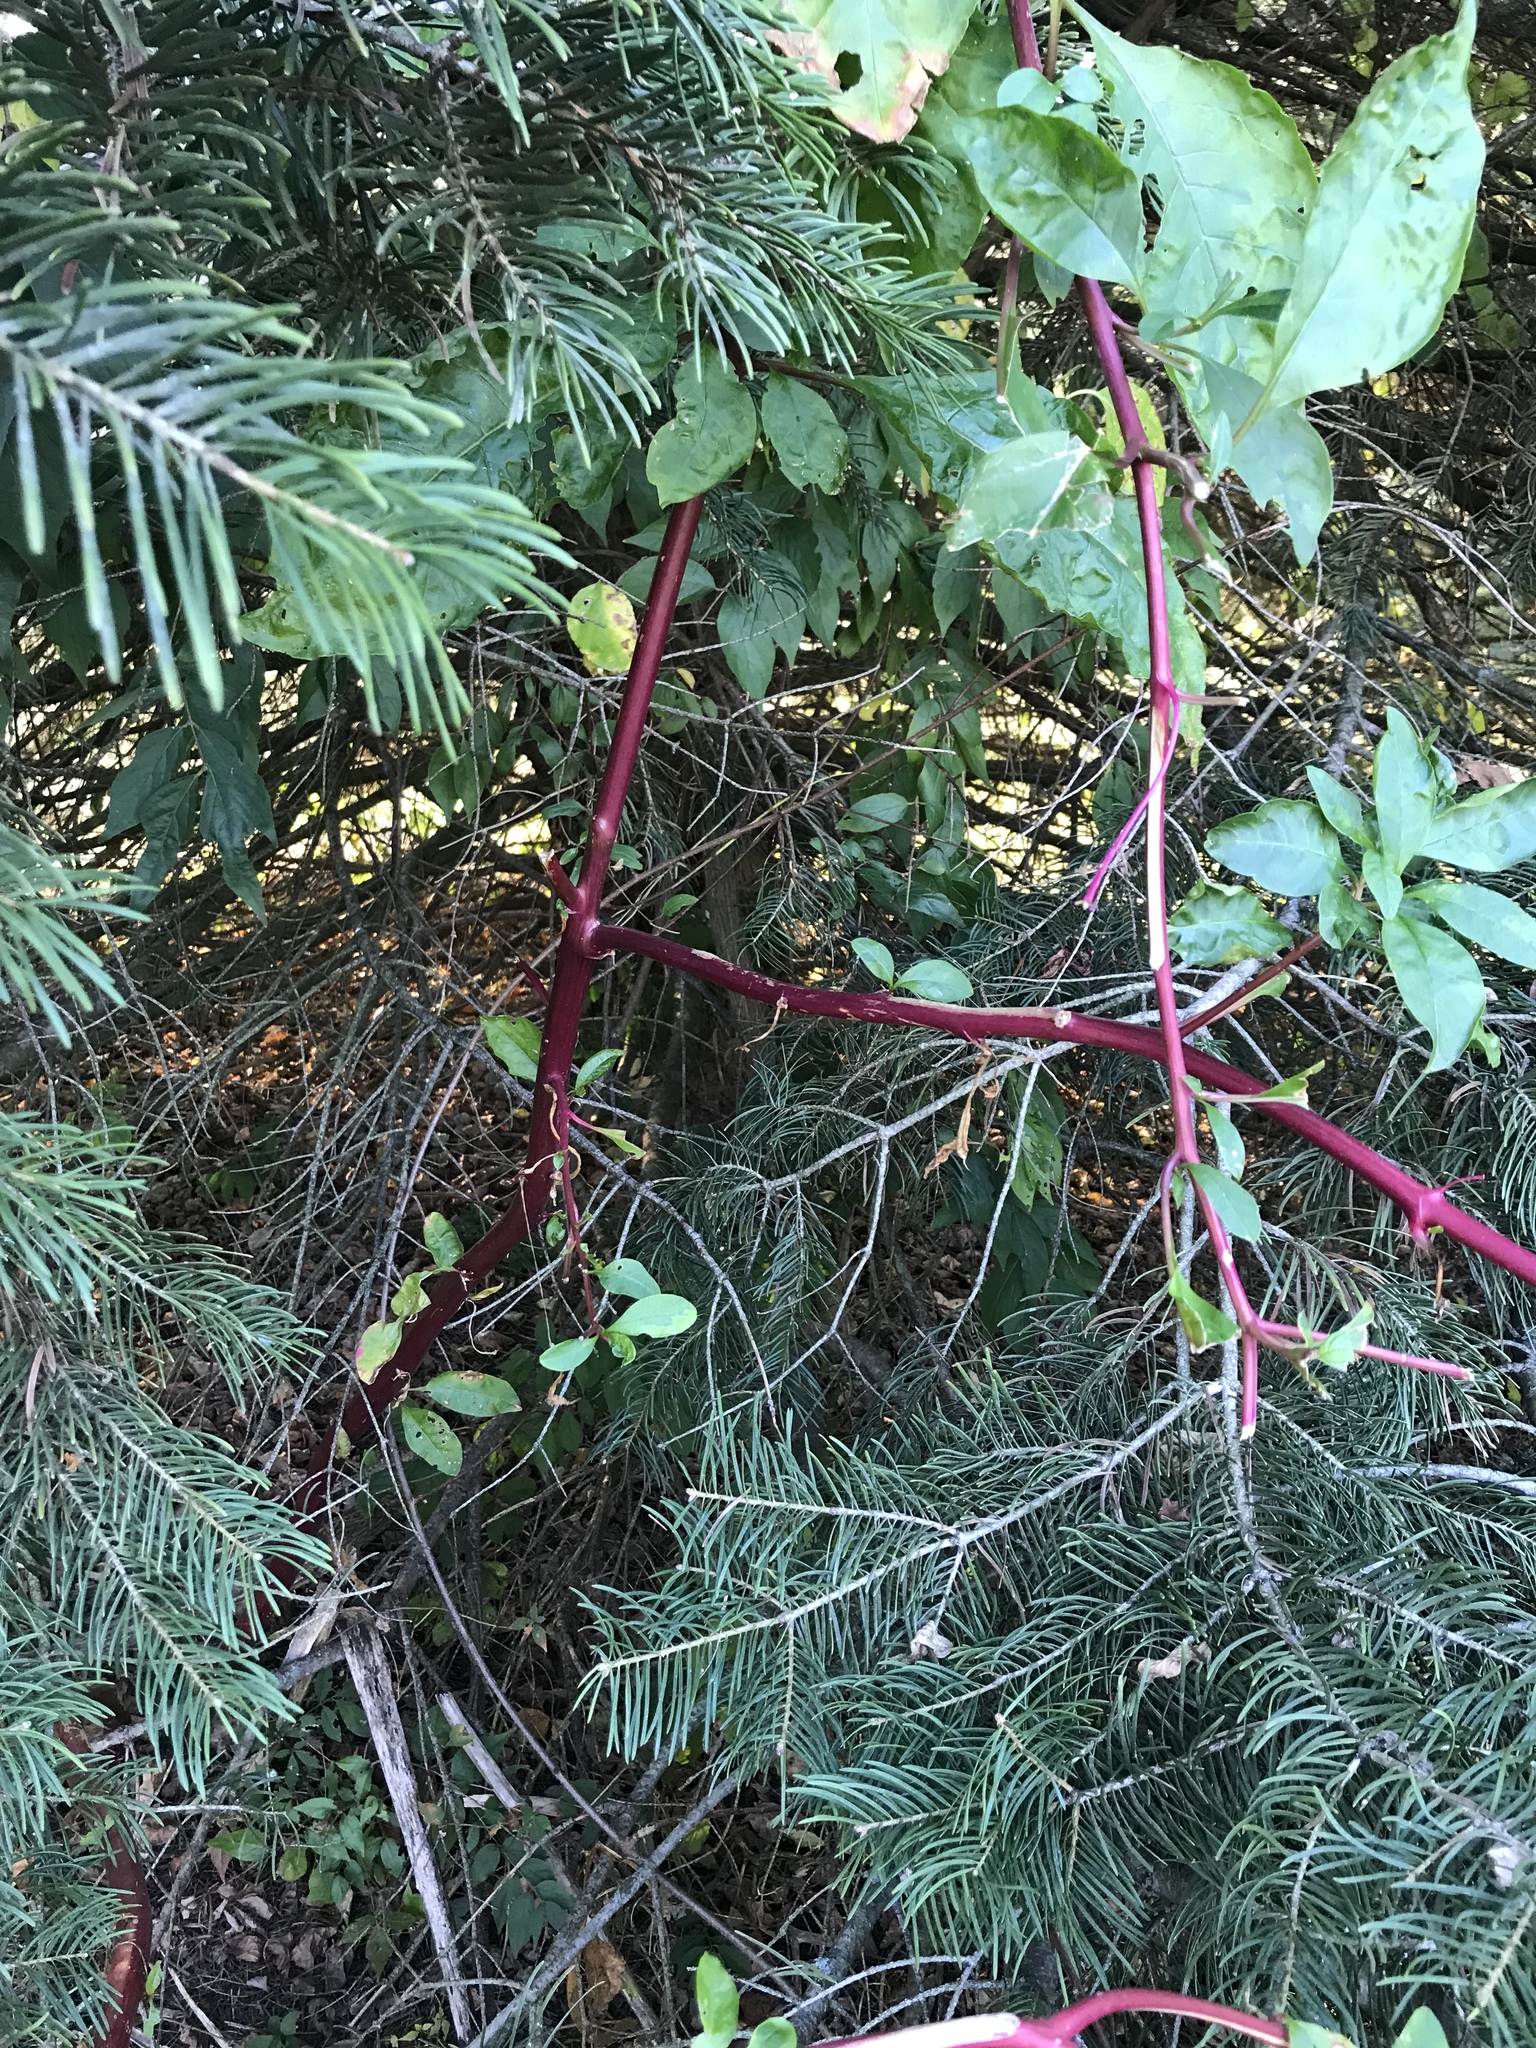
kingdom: Plantae
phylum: Tracheophyta
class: Magnoliopsida
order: Caryophyllales
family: Phytolaccaceae
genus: Phytolacca
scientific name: Phytolacca americana
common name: American pokeweed
